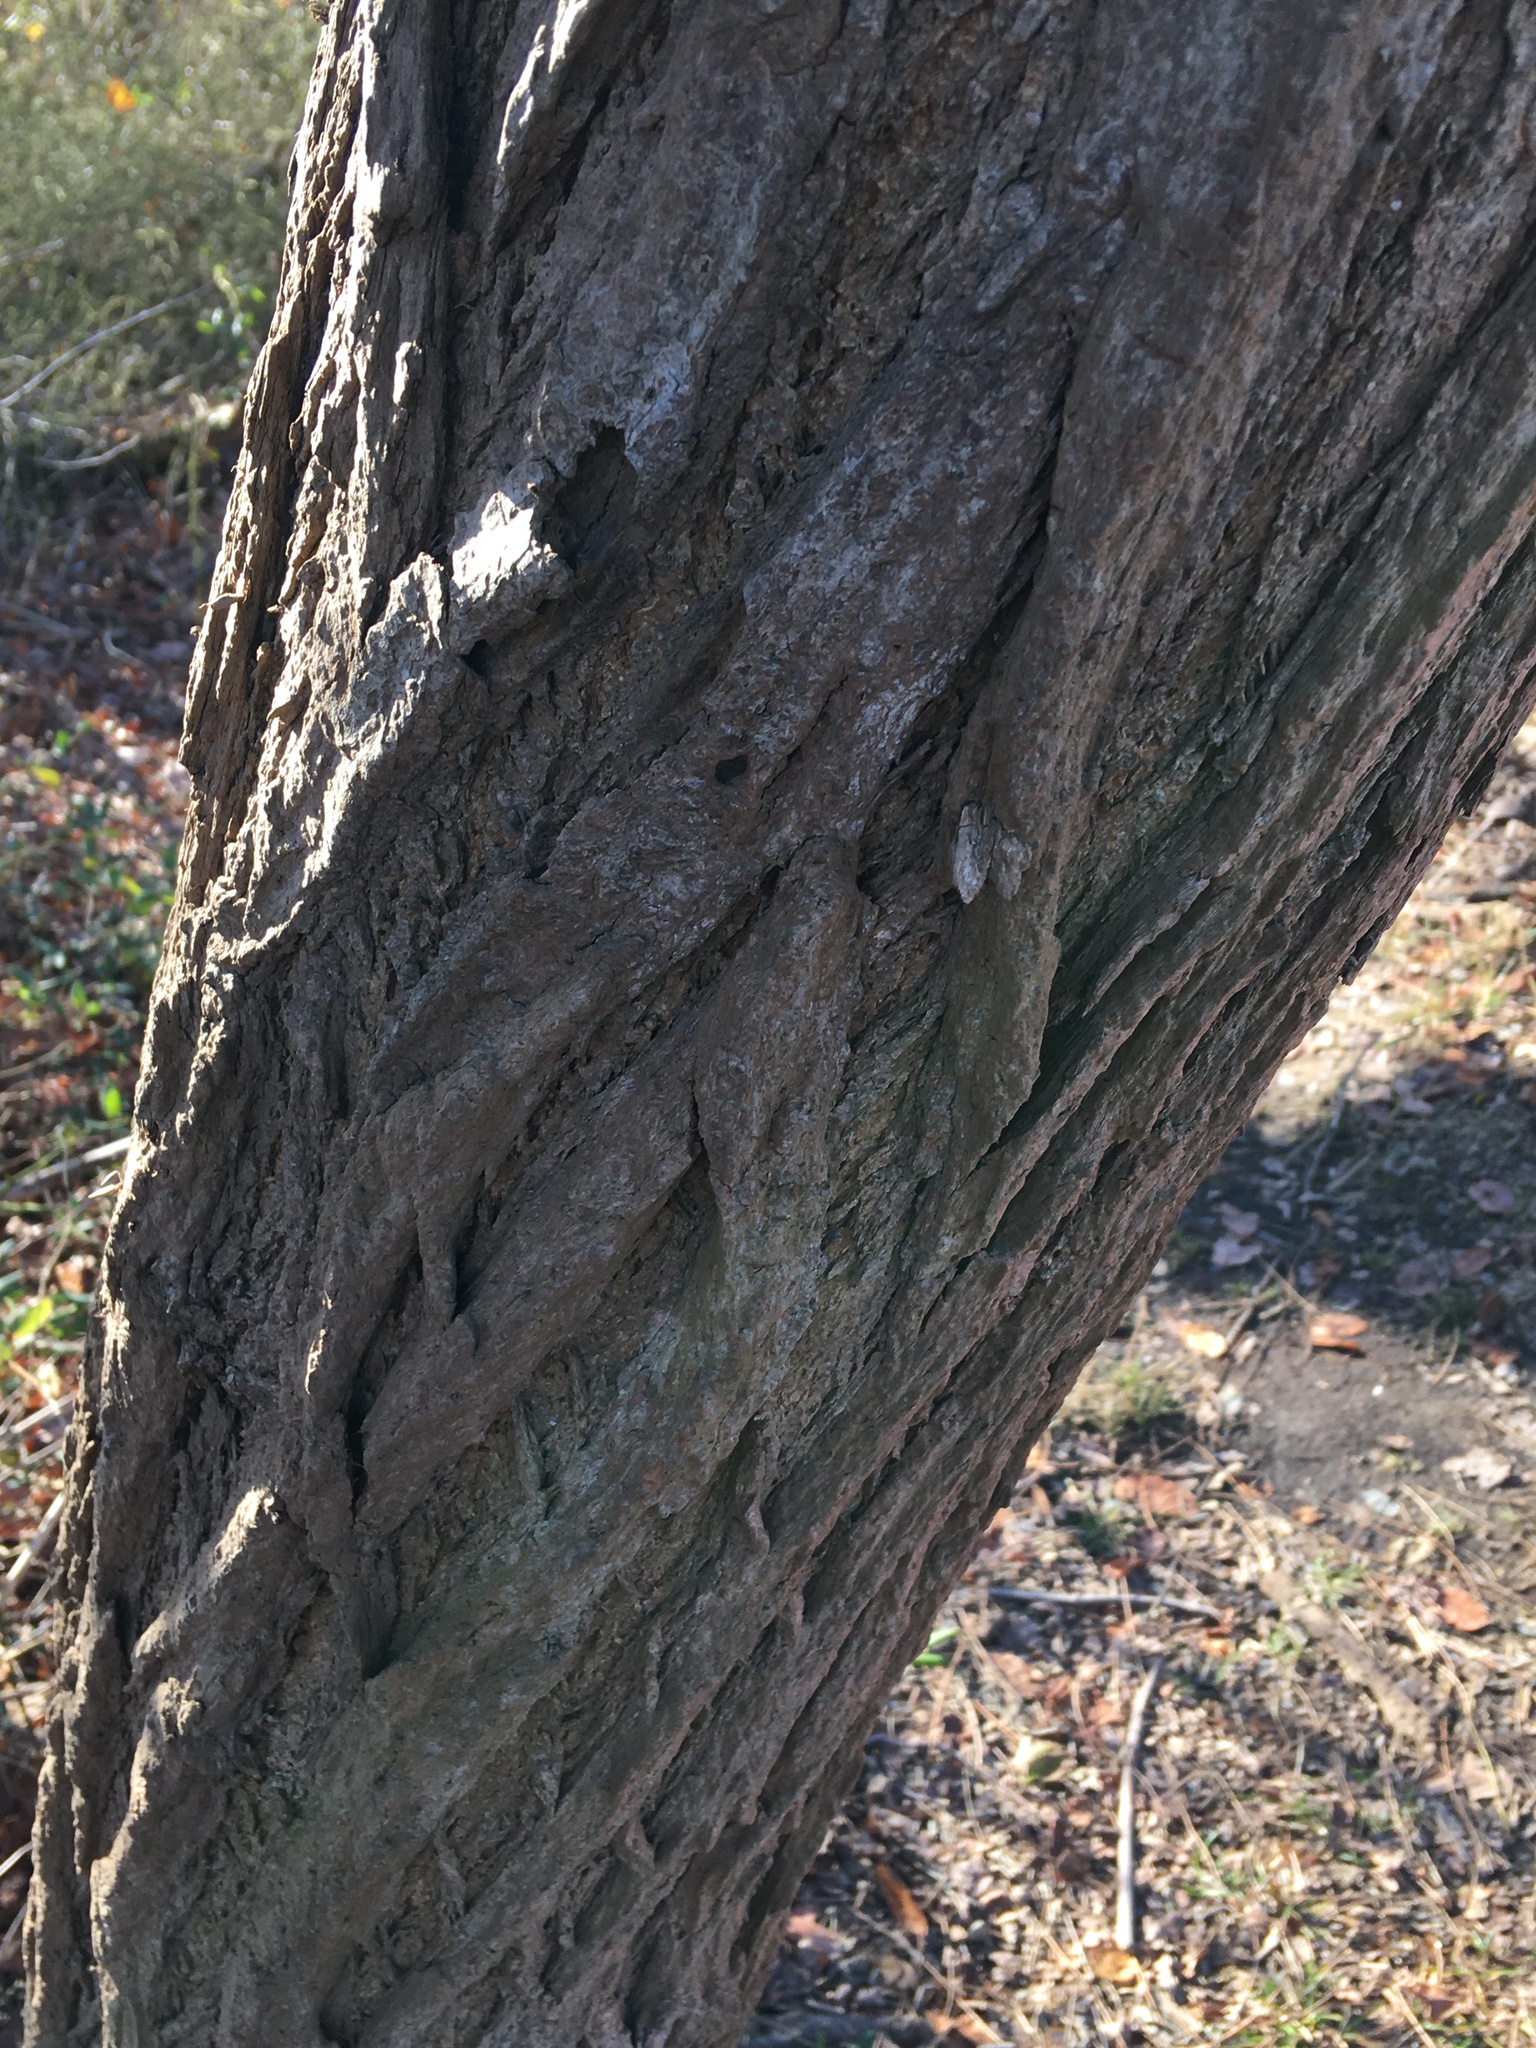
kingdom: Plantae
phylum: Tracheophyta
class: Magnoliopsida
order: Fabales
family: Fabaceae
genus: Robinia
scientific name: Robinia pseudoacacia
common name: Black locust
